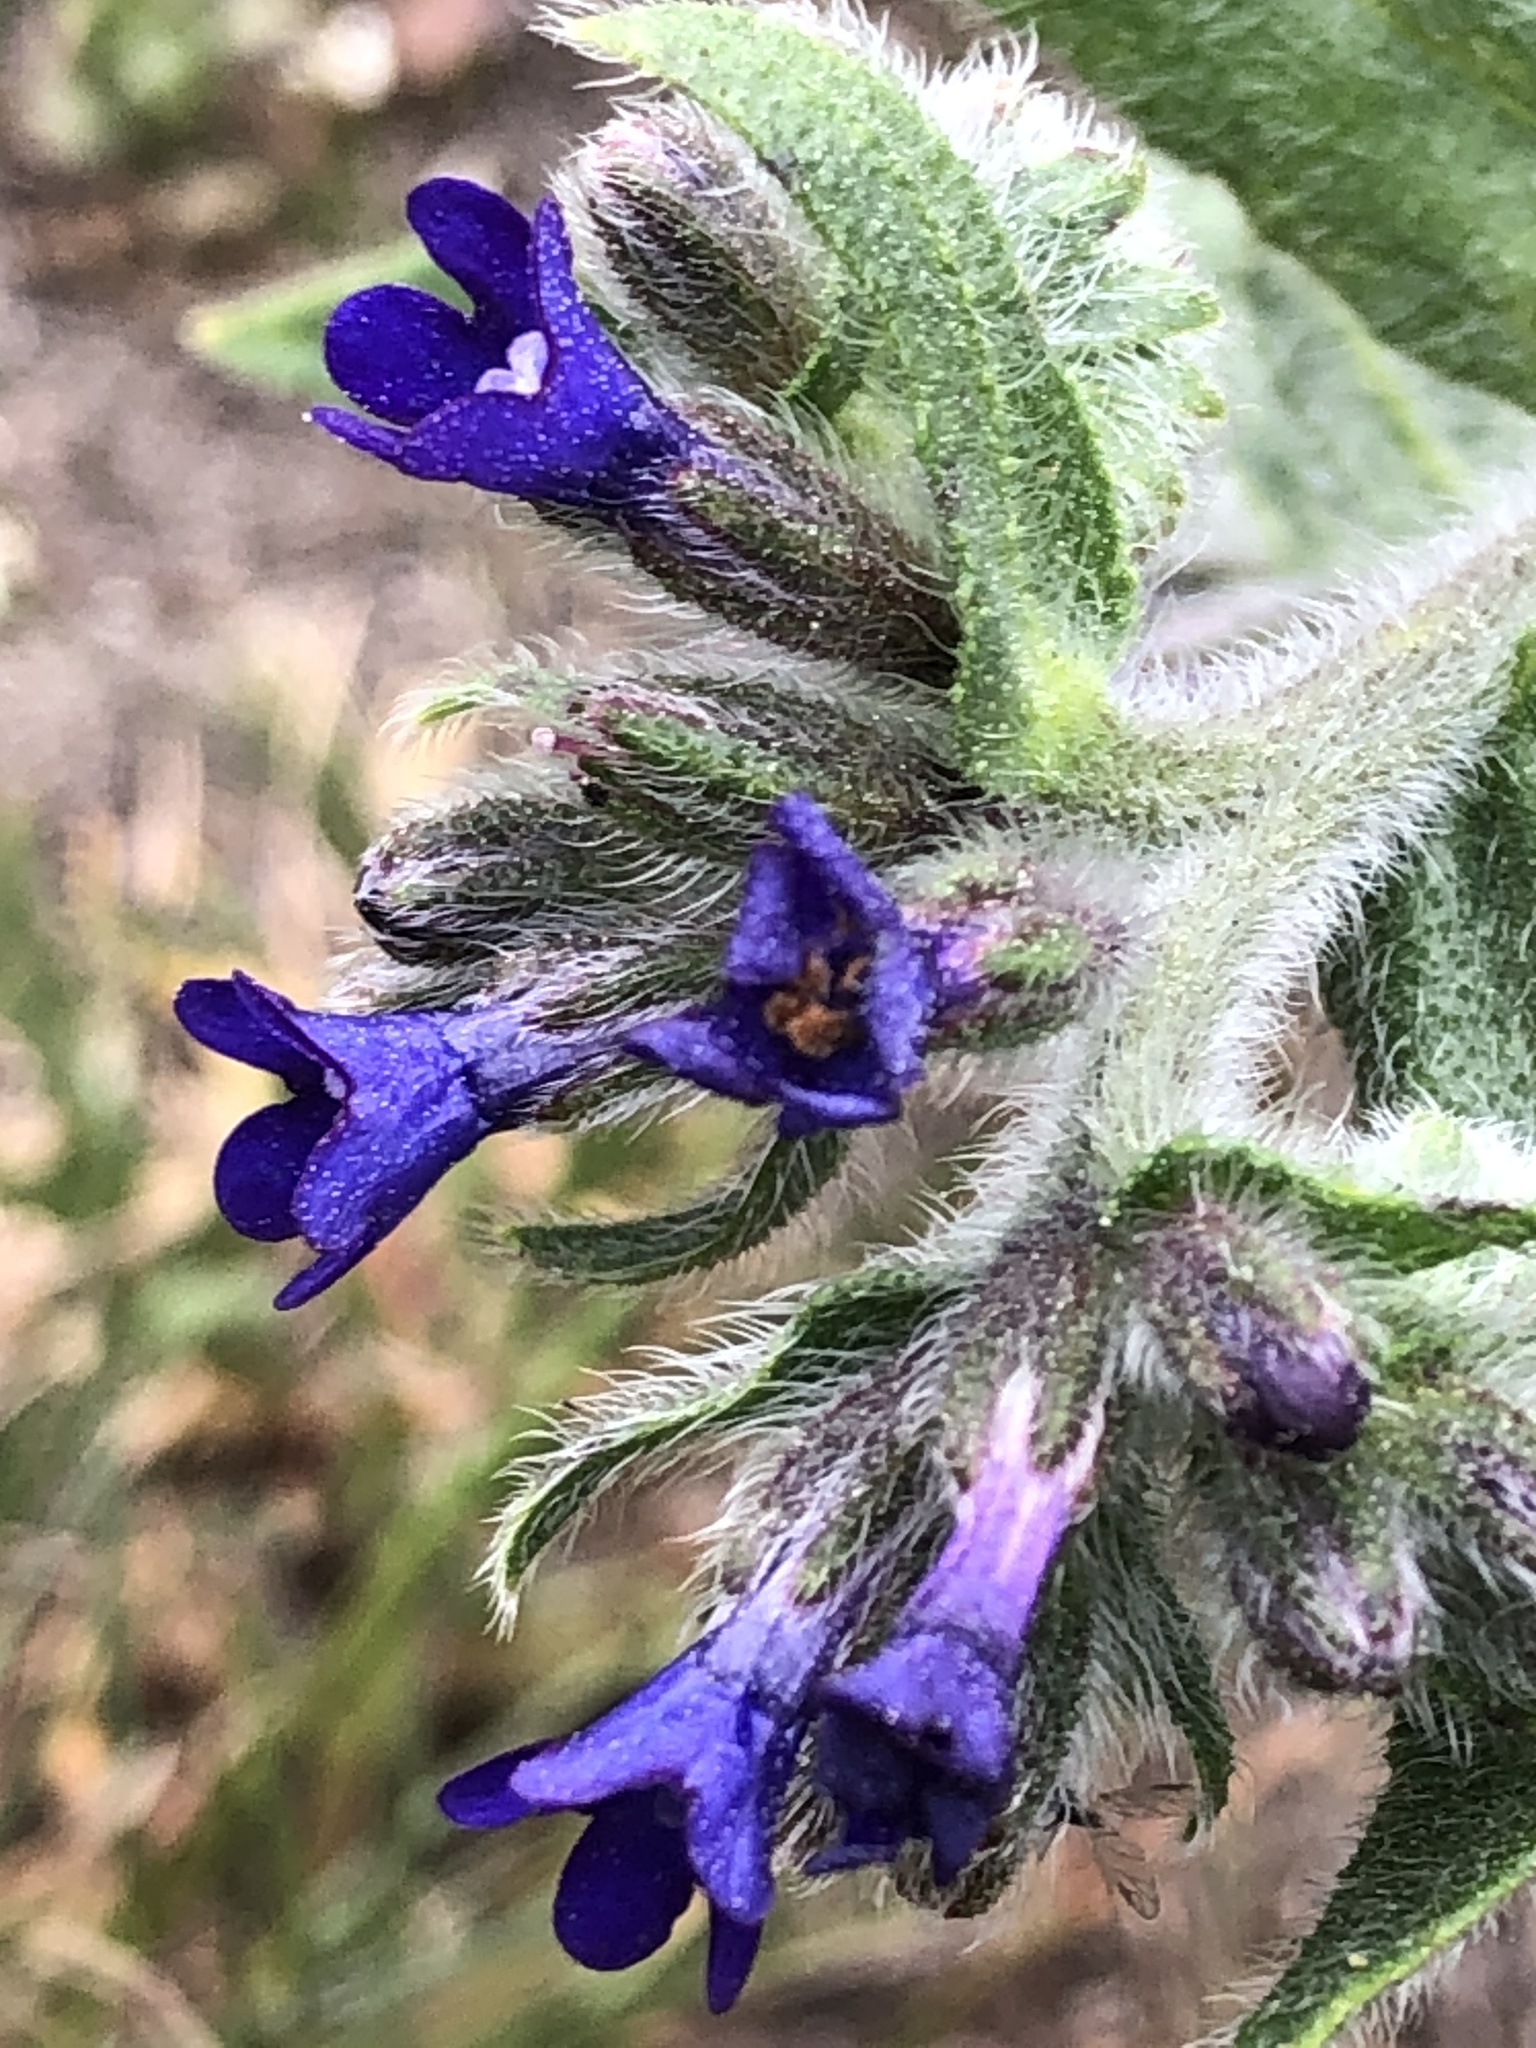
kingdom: Plantae
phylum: Tracheophyta
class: Magnoliopsida
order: Boraginales
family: Boraginaceae
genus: Anchusa
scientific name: Anchusa officinalis
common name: Alkanet
